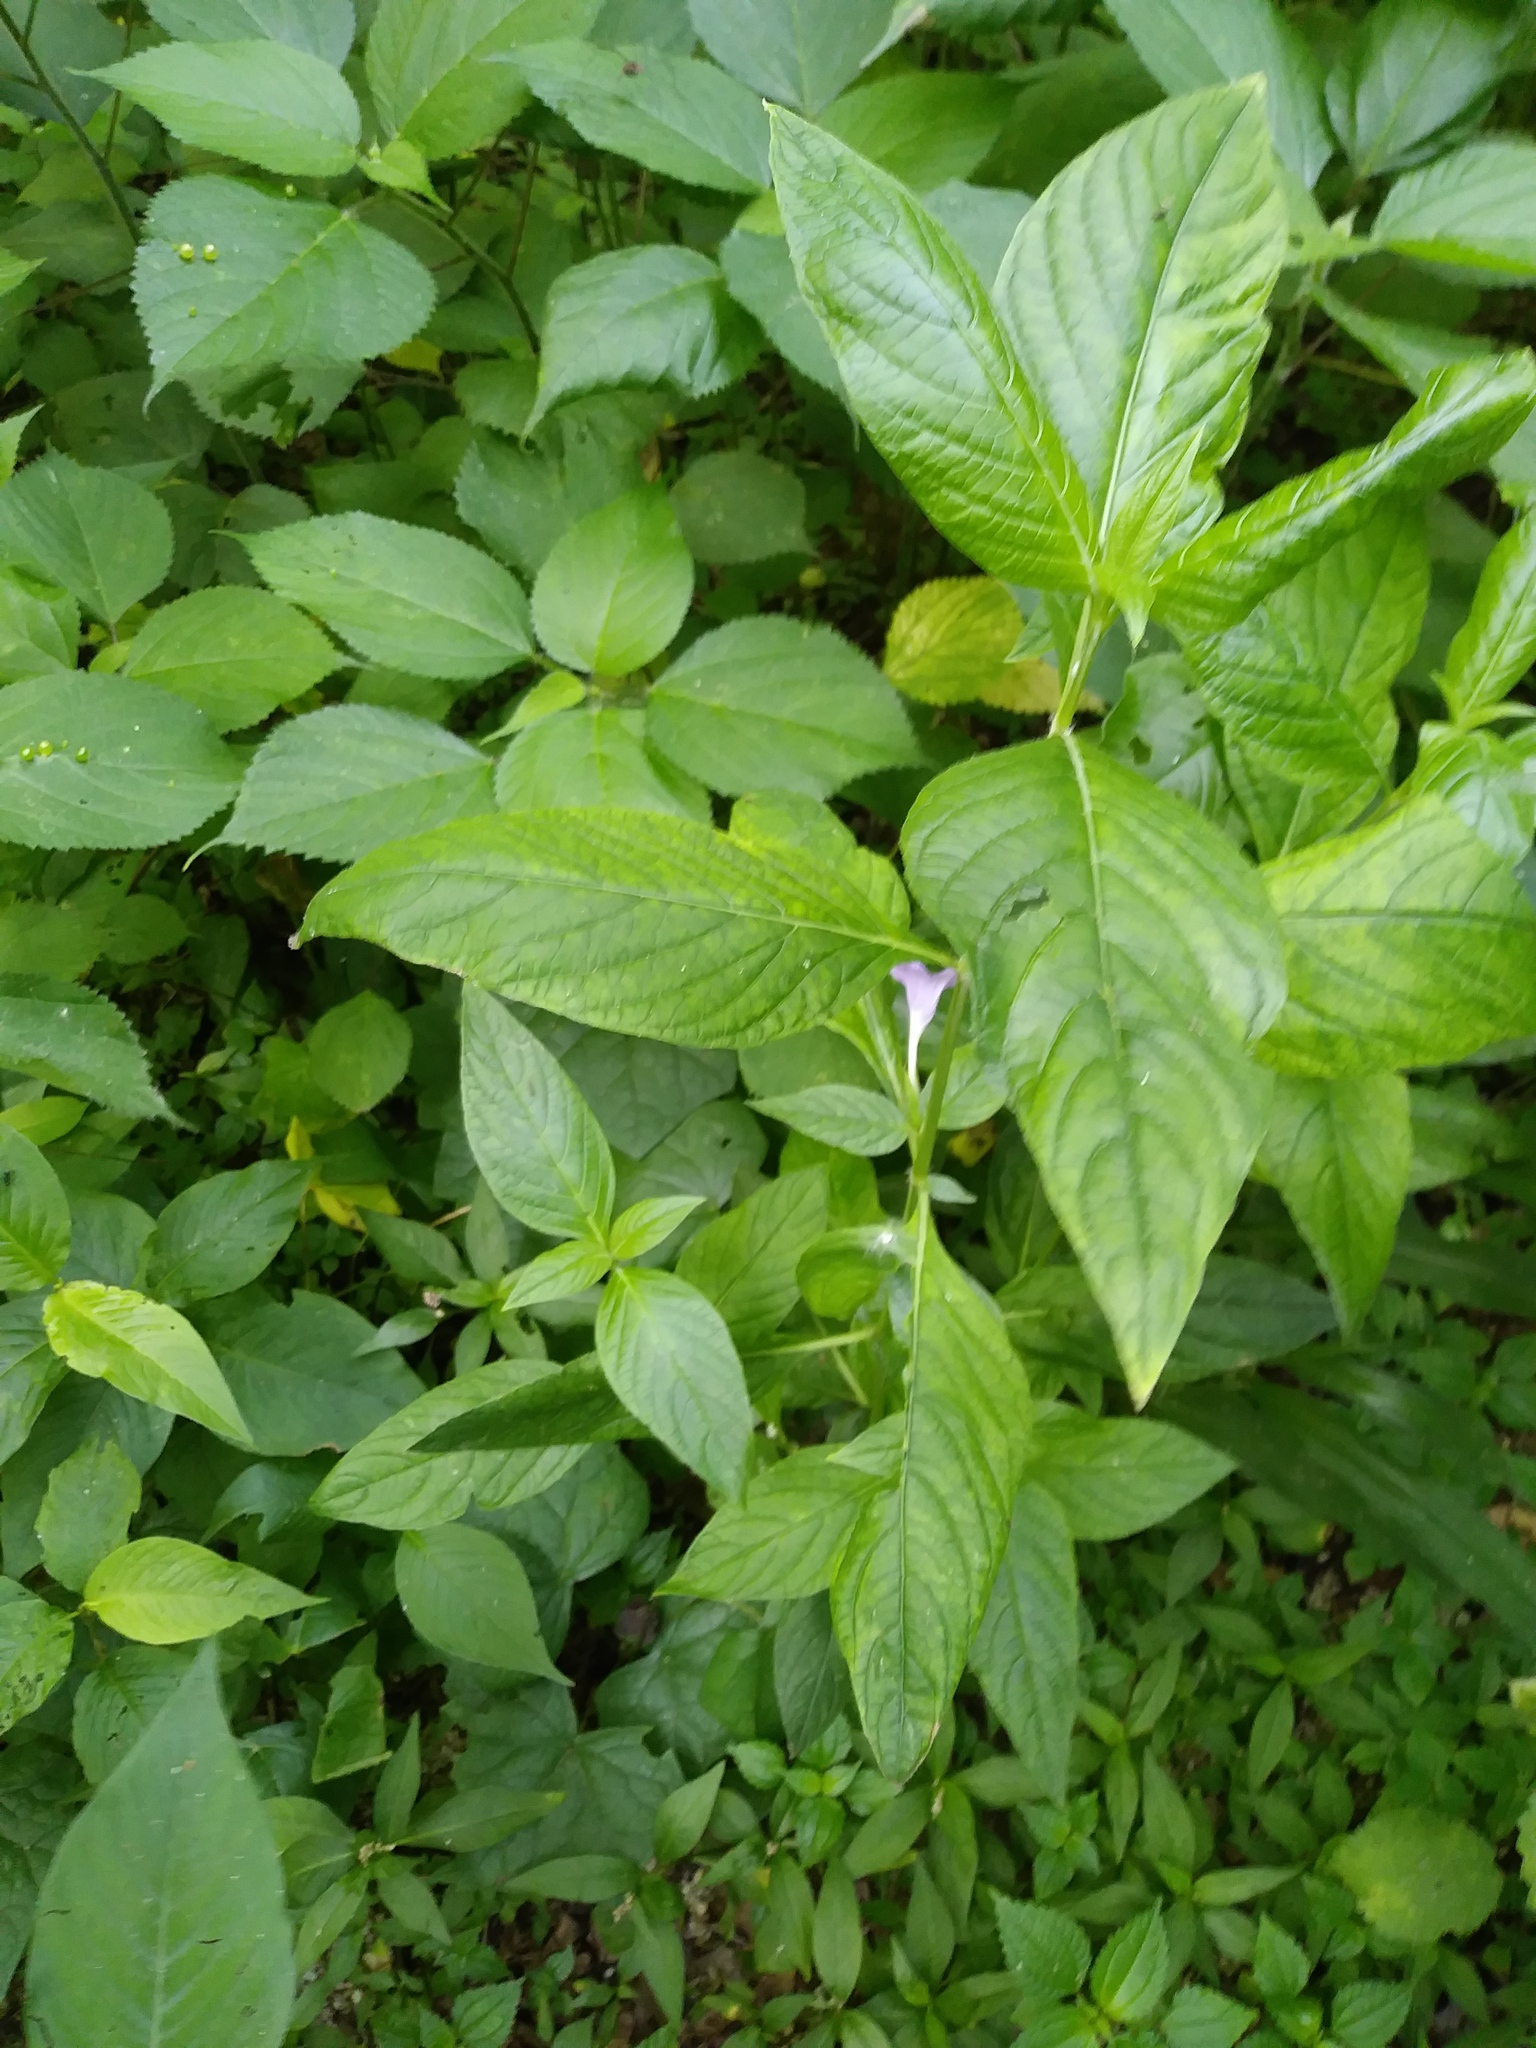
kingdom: Plantae
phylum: Tracheophyta
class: Magnoliopsida
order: Lamiales
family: Acanthaceae
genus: Ruellia
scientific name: Ruellia strepens
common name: Limestone wild petunia
